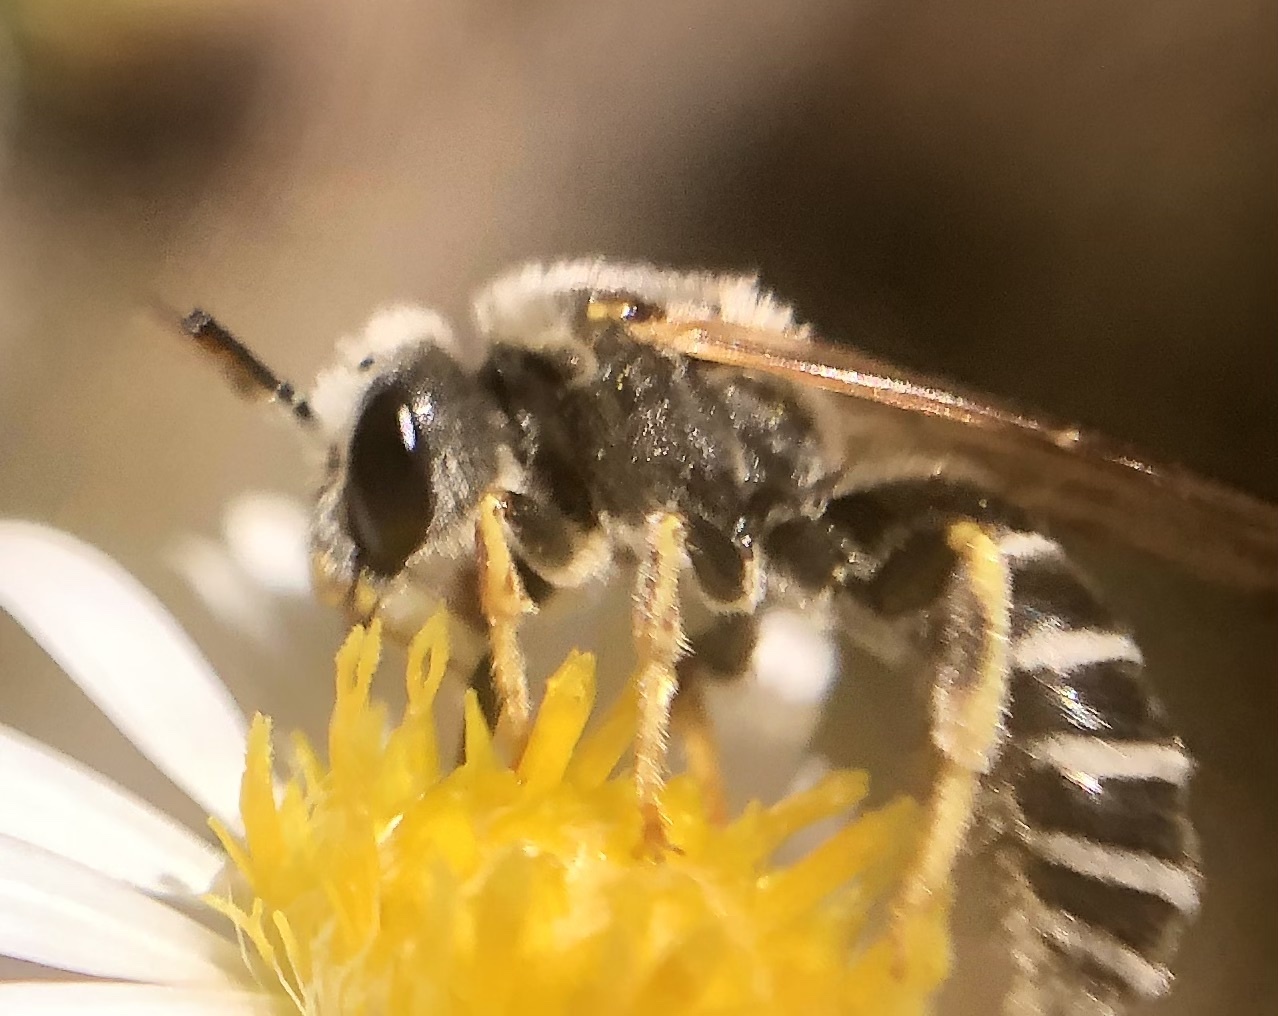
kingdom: Animalia
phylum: Arthropoda
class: Insecta
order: Hymenoptera
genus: Odontalictus
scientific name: Odontalictus
